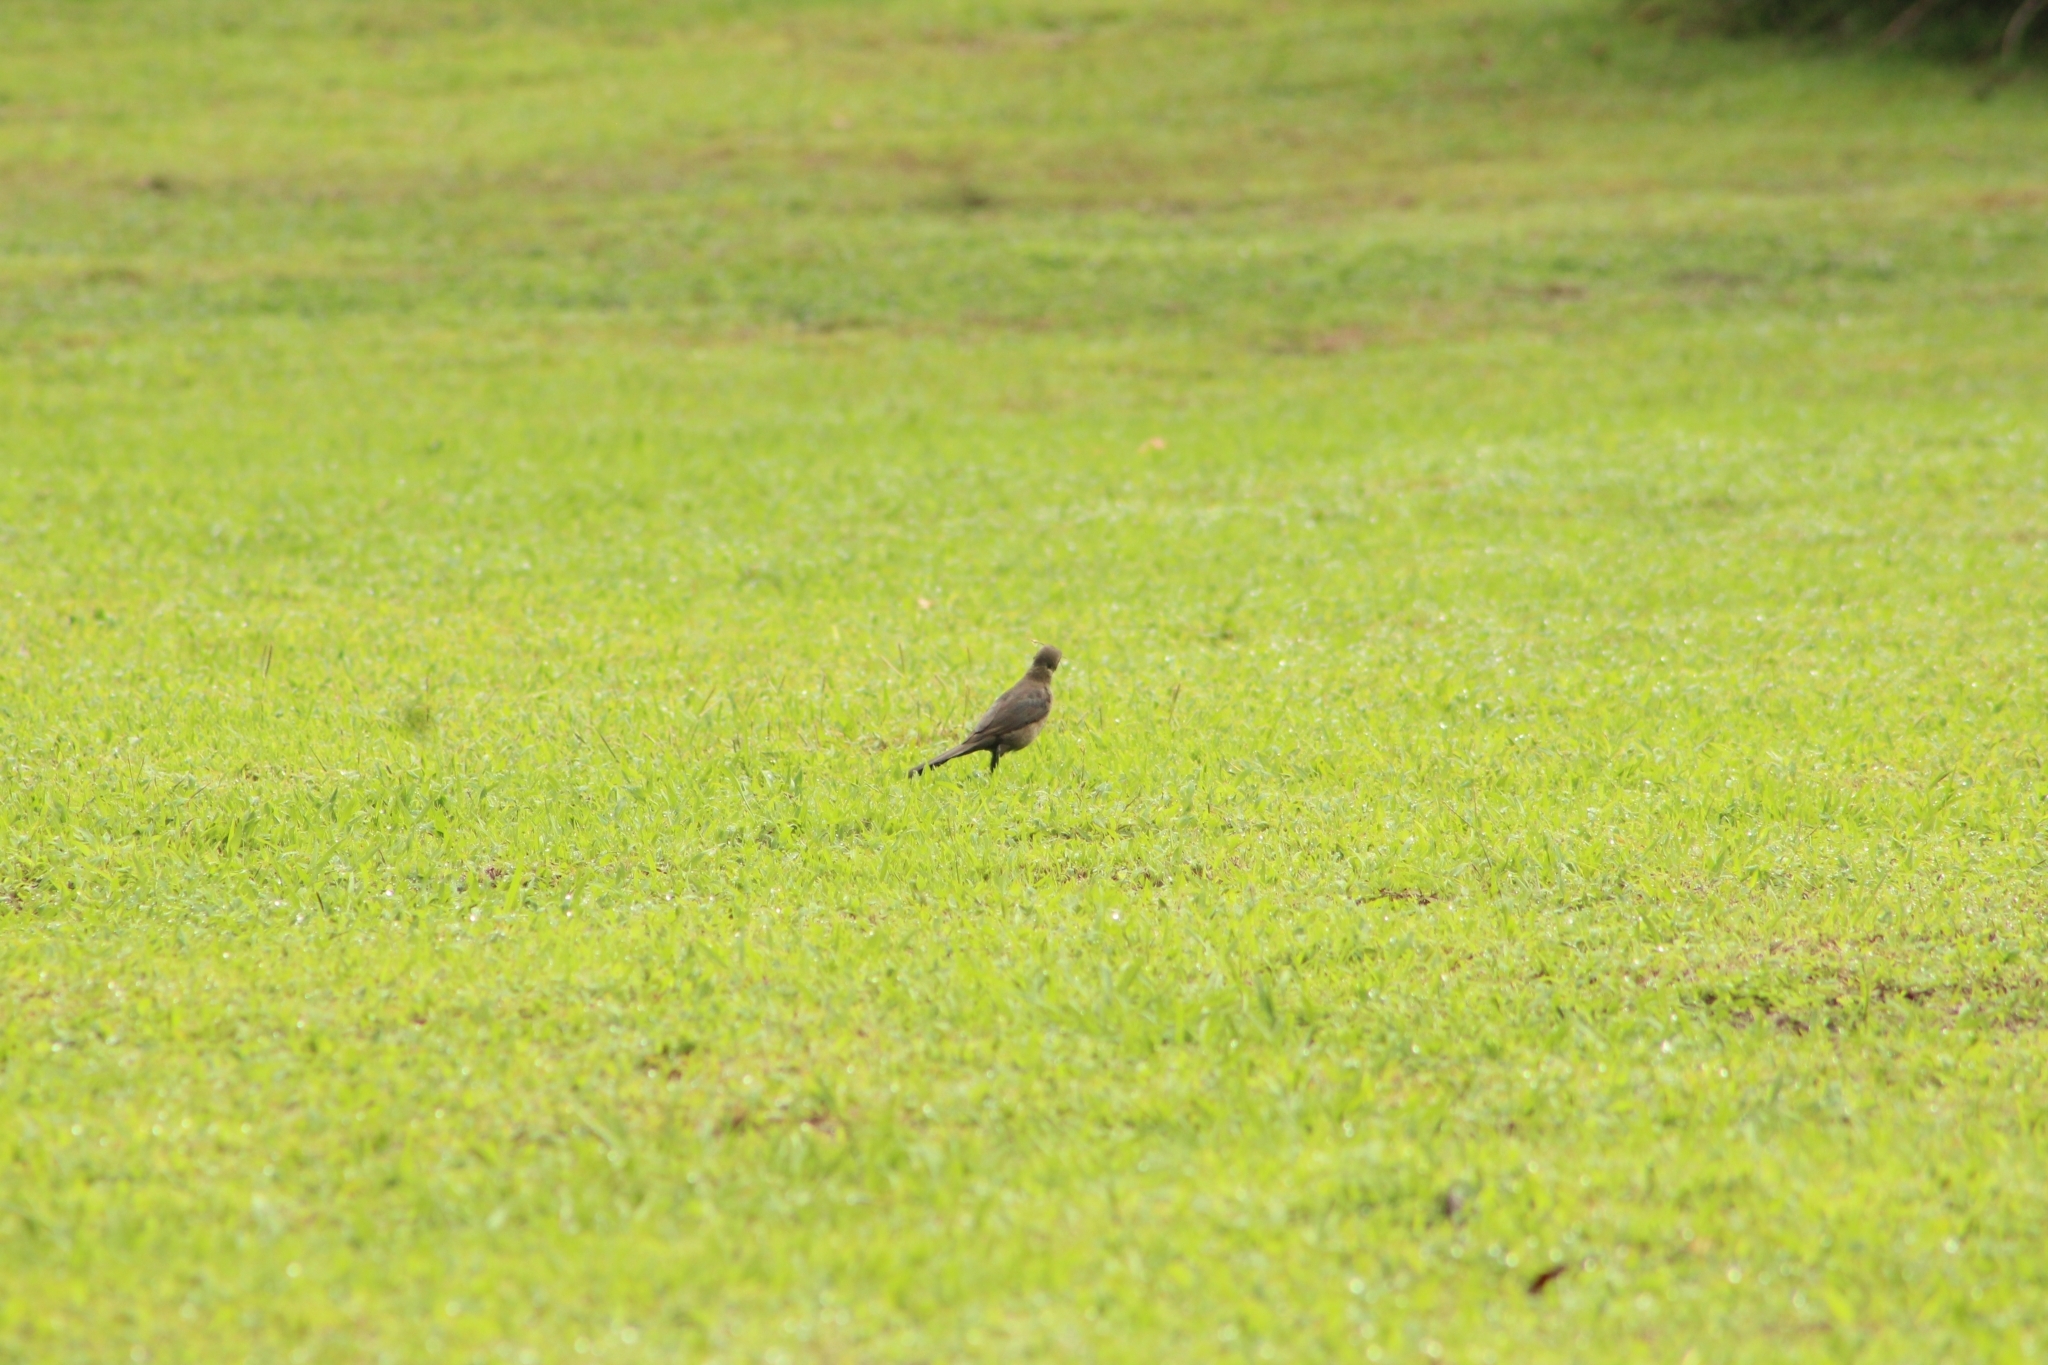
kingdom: Animalia
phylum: Chordata
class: Aves
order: Passeriformes
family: Turdidae
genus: Turdus
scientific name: Turdus grayi
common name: Clay-colored thrush
